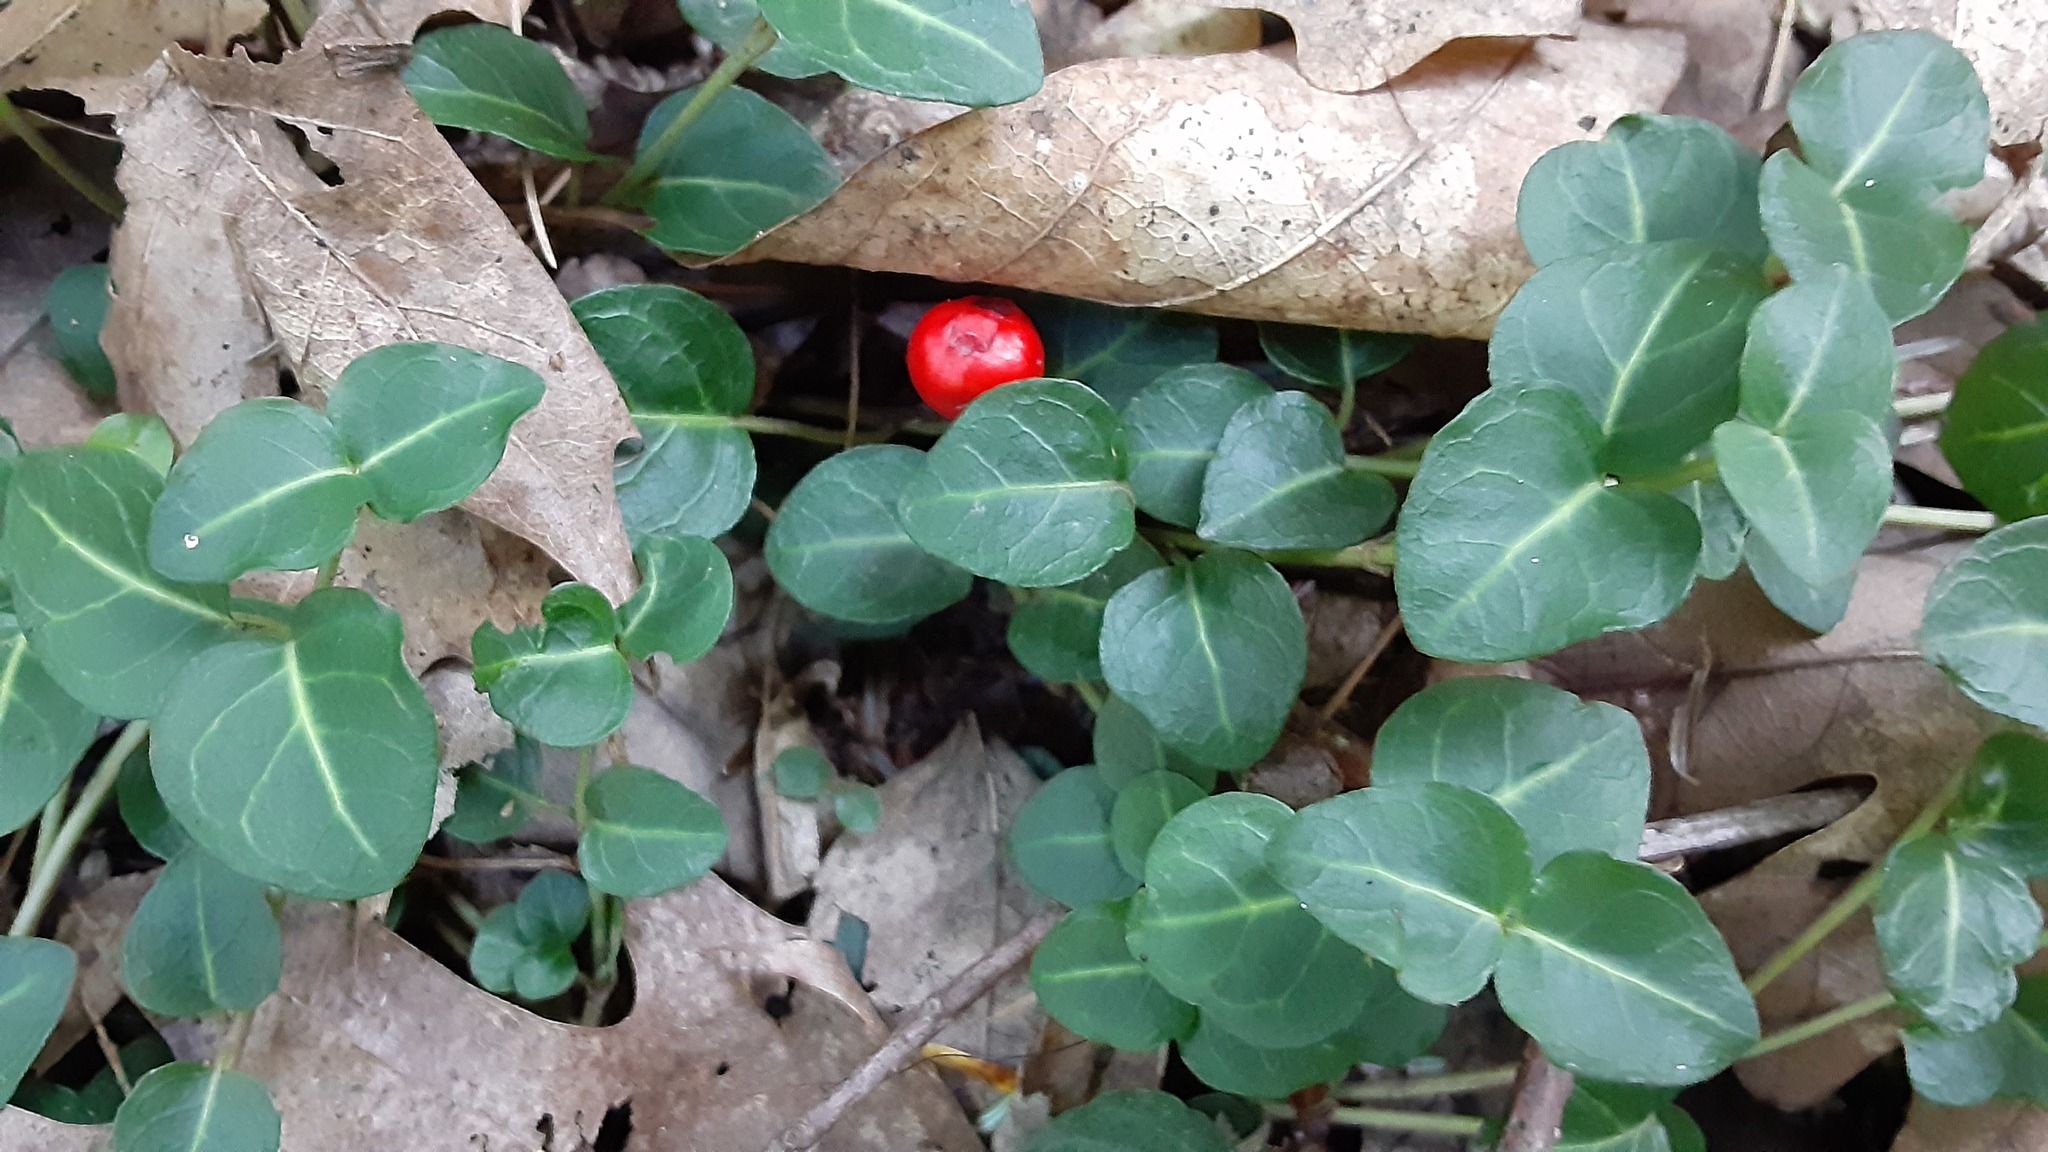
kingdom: Plantae
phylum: Tracheophyta
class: Magnoliopsida
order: Gentianales
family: Rubiaceae
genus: Mitchella
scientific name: Mitchella repens
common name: Partridge-berry
